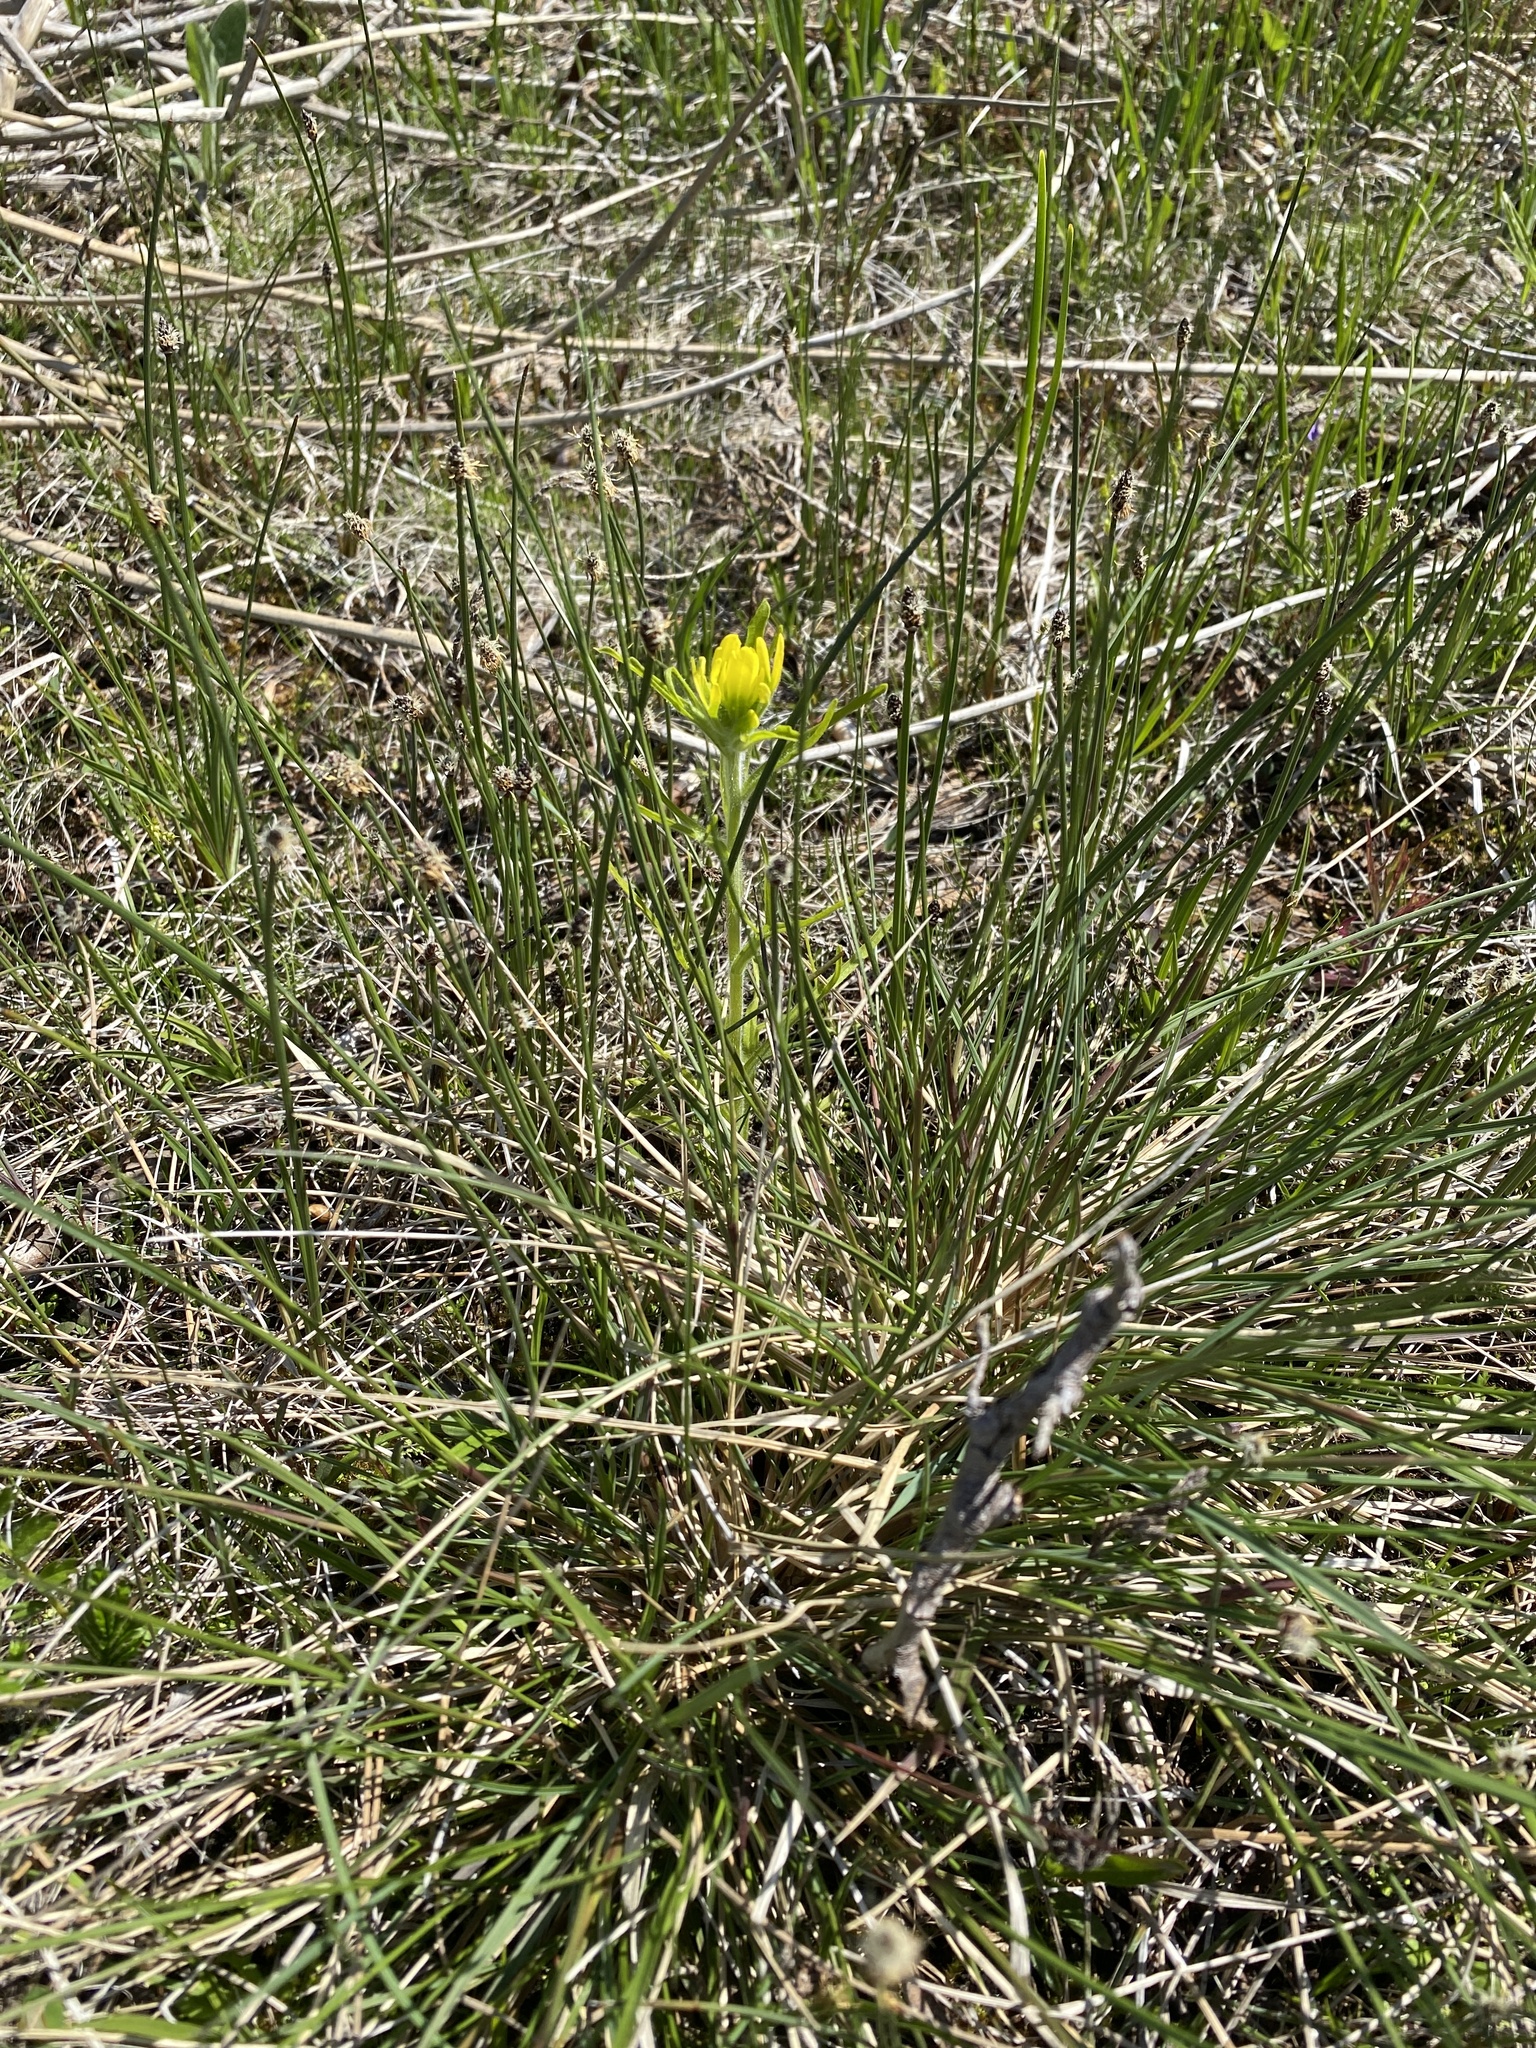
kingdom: Plantae
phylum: Tracheophyta
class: Magnoliopsida
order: Lamiales
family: Orobanchaceae
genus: Castilleja
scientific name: Castilleja coccinea
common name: Scarlet paintbrush
